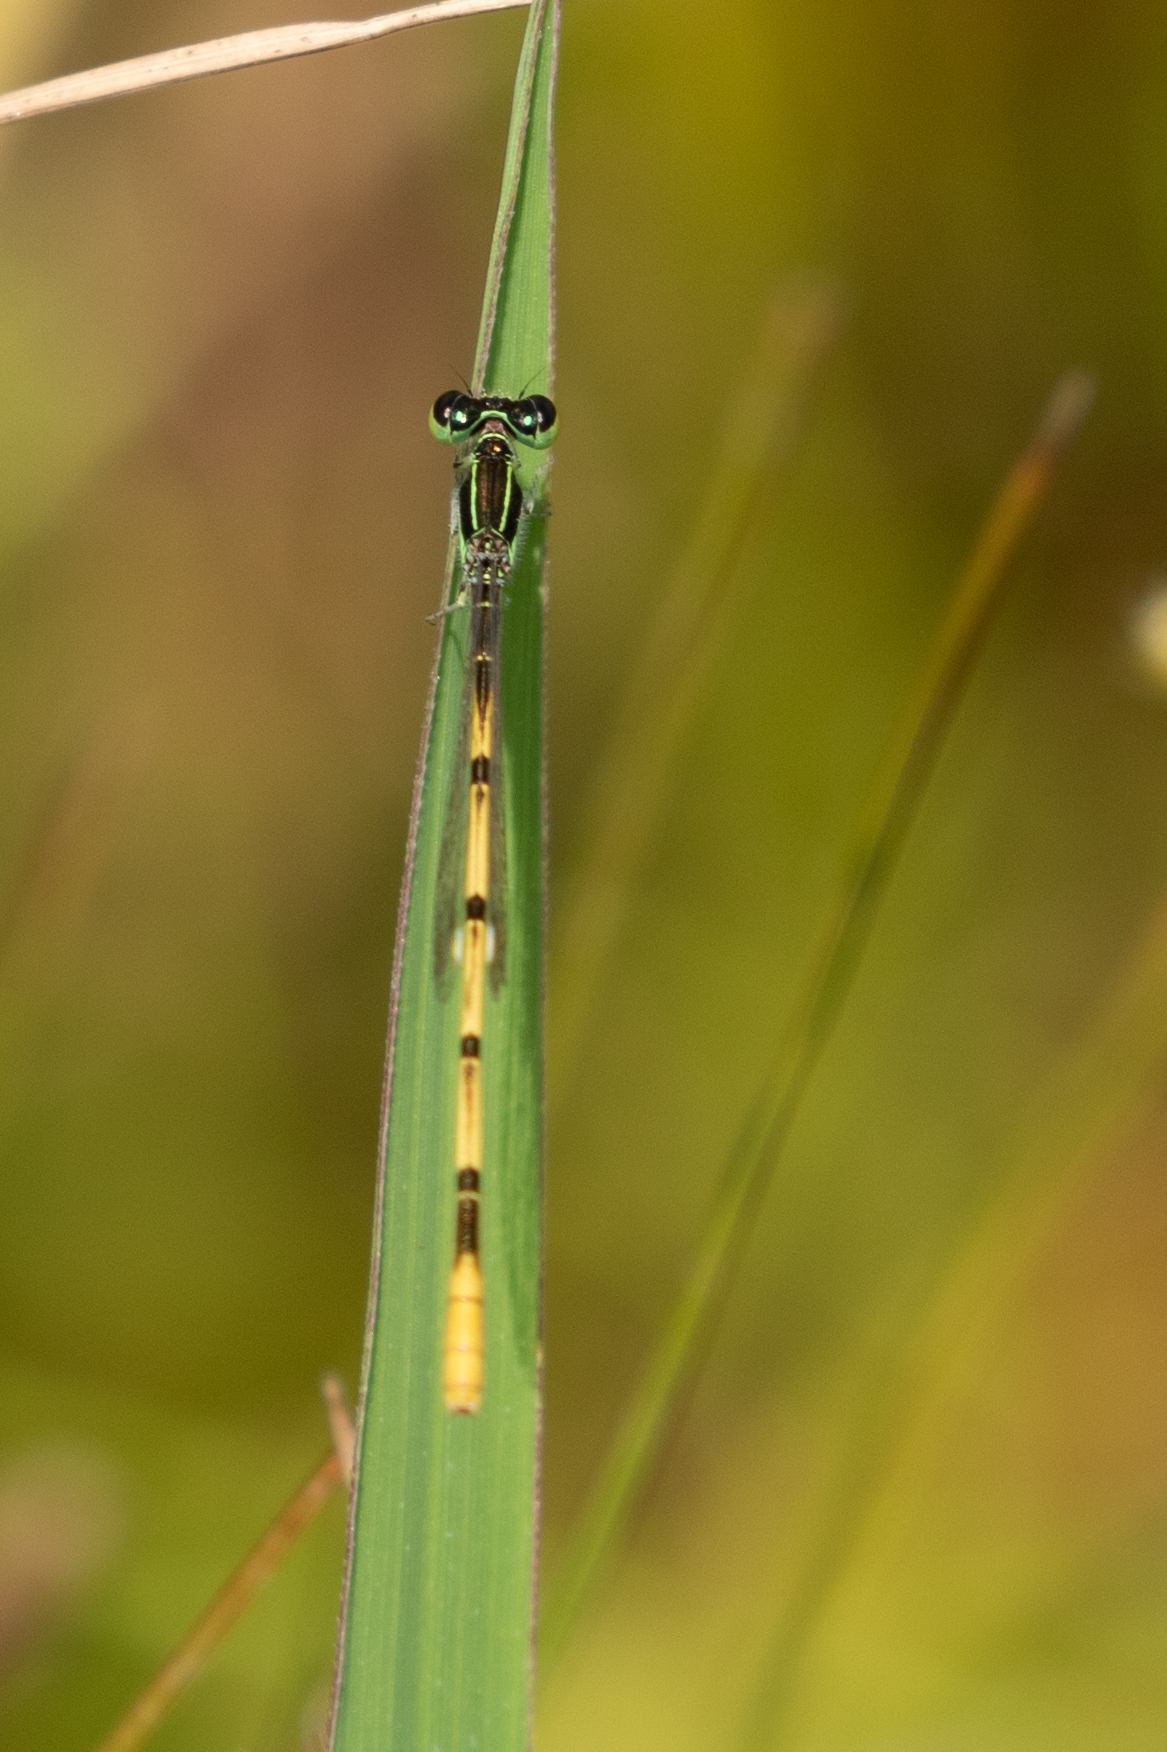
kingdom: Animalia
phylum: Arthropoda
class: Insecta
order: Odonata
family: Coenagrionidae
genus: Ischnura
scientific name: Ischnura hastata
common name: Citrine forktail
